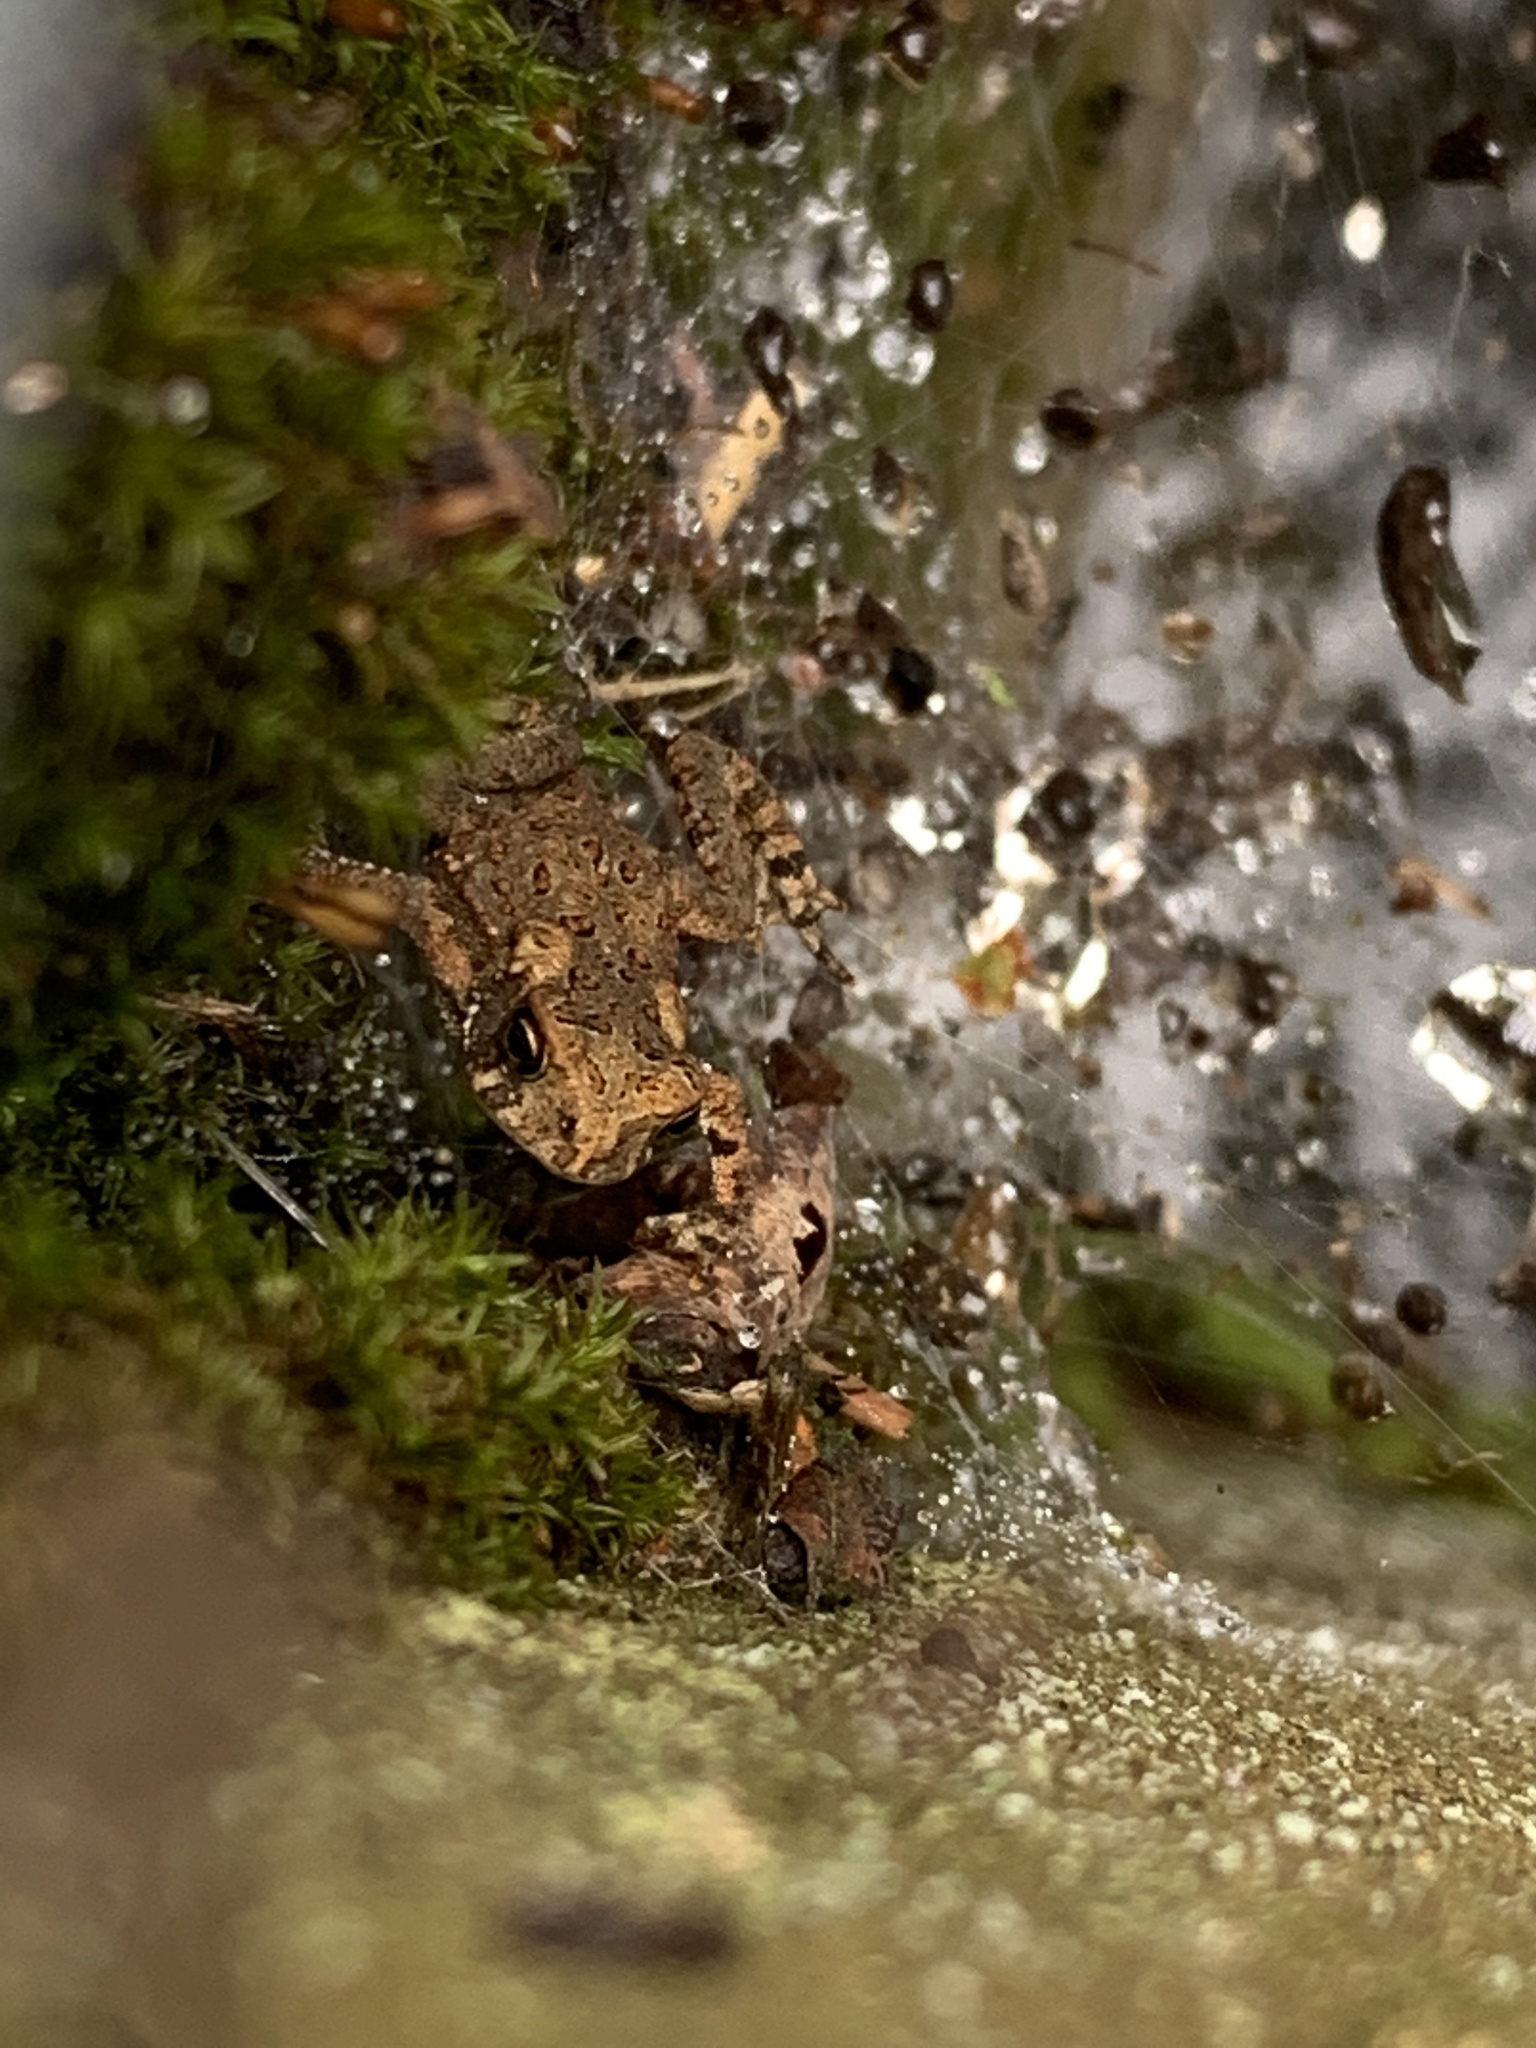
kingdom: Animalia
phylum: Chordata
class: Amphibia
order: Anura
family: Bufonidae
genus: Anaxyrus
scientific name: Anaxyrus americanus
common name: American toad
